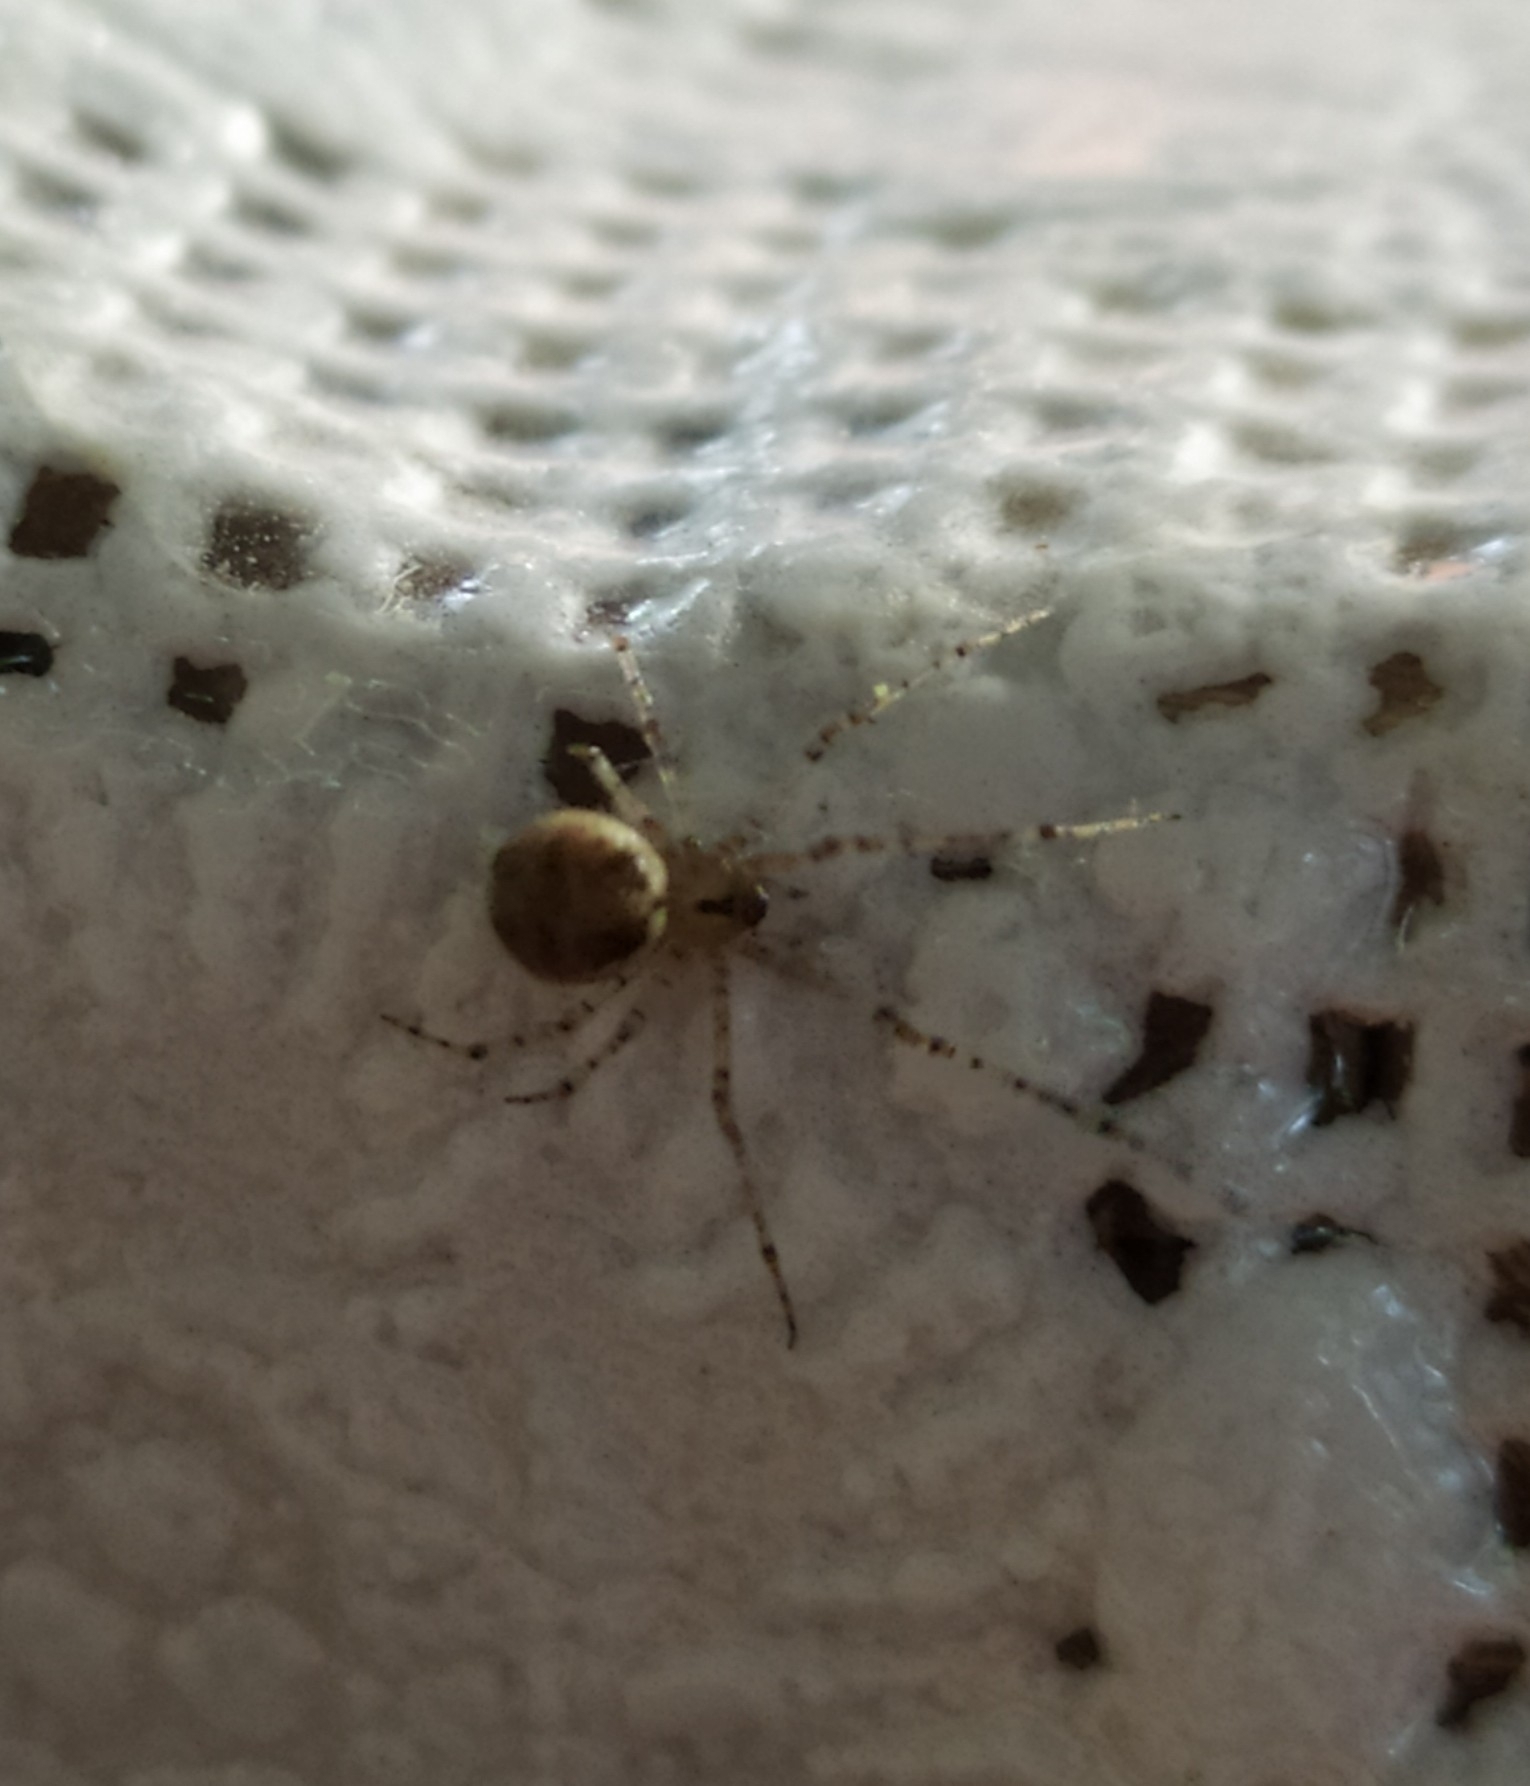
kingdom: Animalia
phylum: Arthropoda
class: Arachnida
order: Araneae
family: Theridiidae
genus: Platnickina
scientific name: Platnickina tincta
